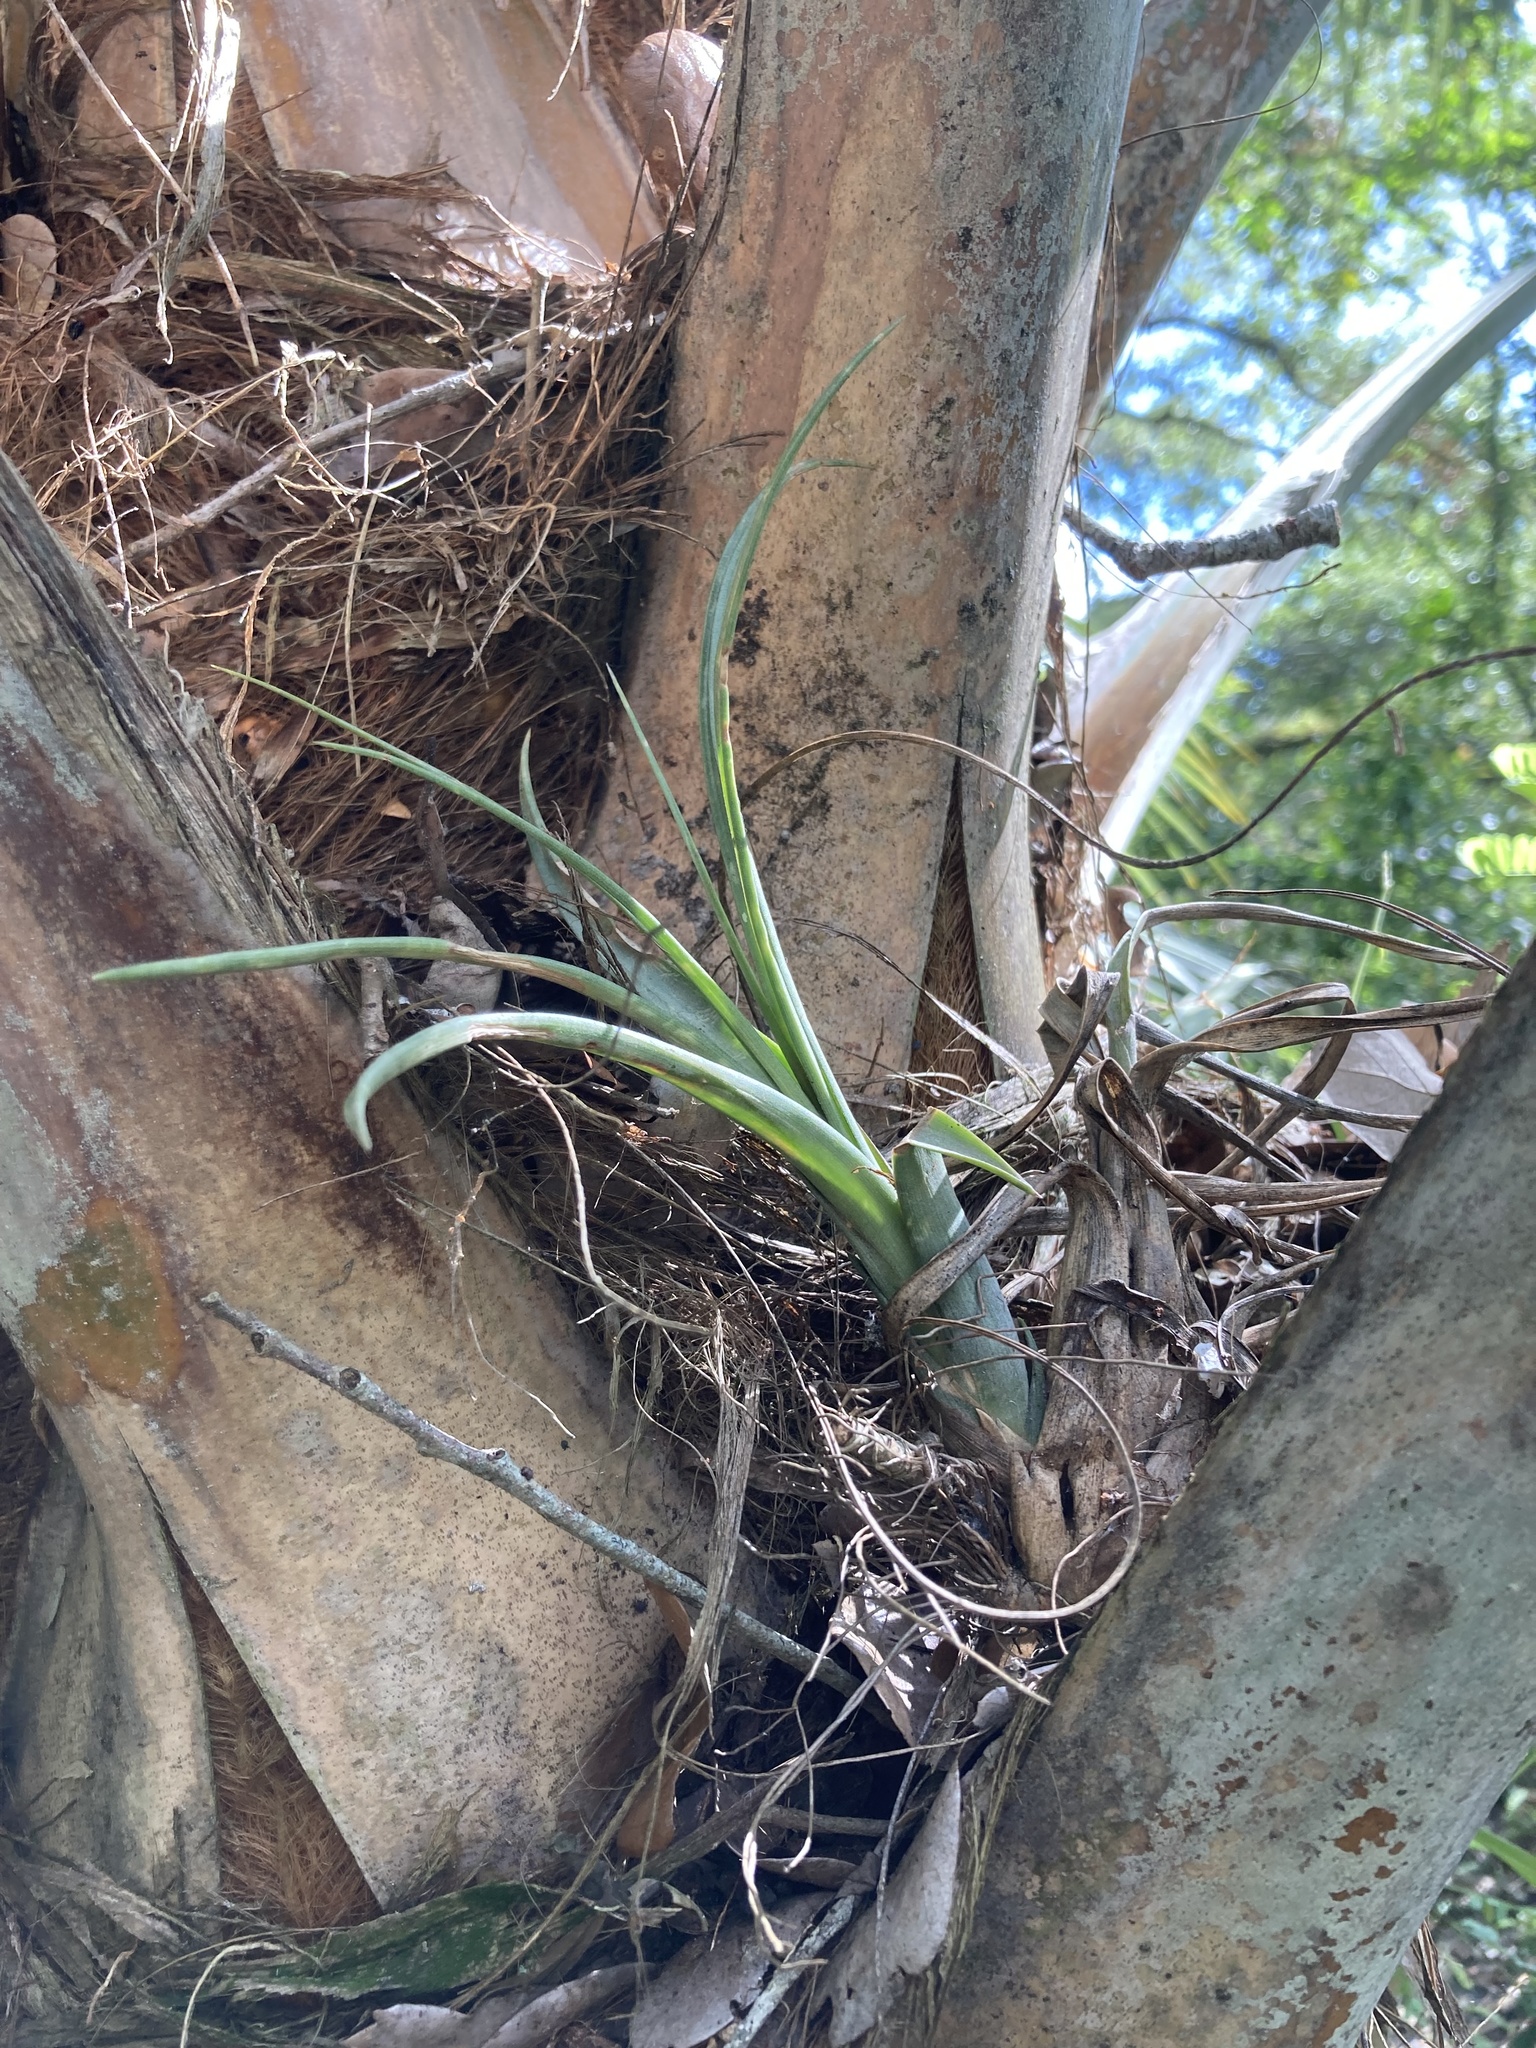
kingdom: Plantae
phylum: Tracheophyta
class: Liliopsida
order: Poales
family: Bromeliaceae
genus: Tillandsia
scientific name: Tillandsia balbisiana
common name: Northern needleleaf
